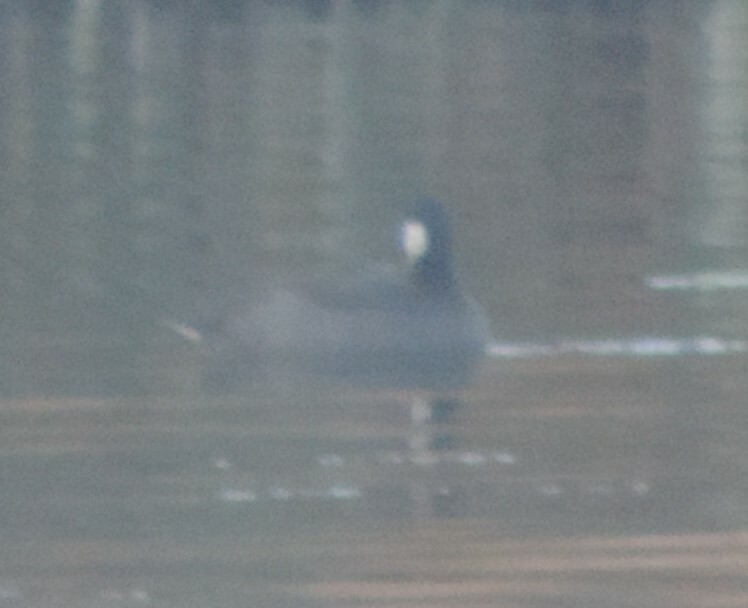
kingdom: Animalia
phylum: Chordata
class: Aves
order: Gruiformes
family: Rallidae
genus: Fulica
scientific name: Fulica americana
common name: American coot
